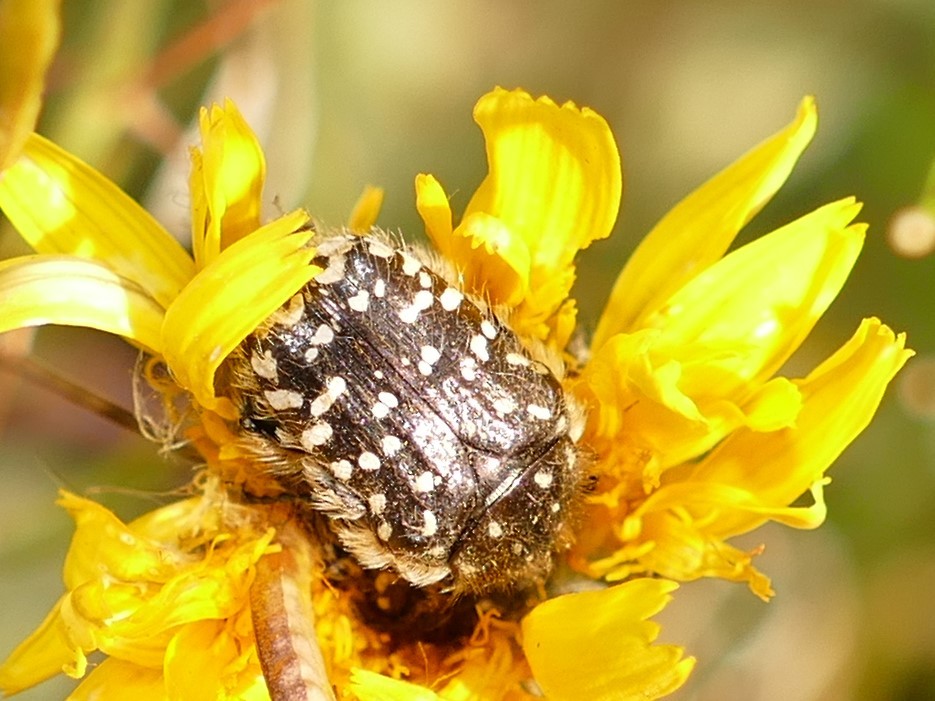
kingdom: Animalia
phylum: Arthropoda
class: Insecta
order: Coleoptera
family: Scarabaeidae
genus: Oxythyrea
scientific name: Oxythyrea funesta
